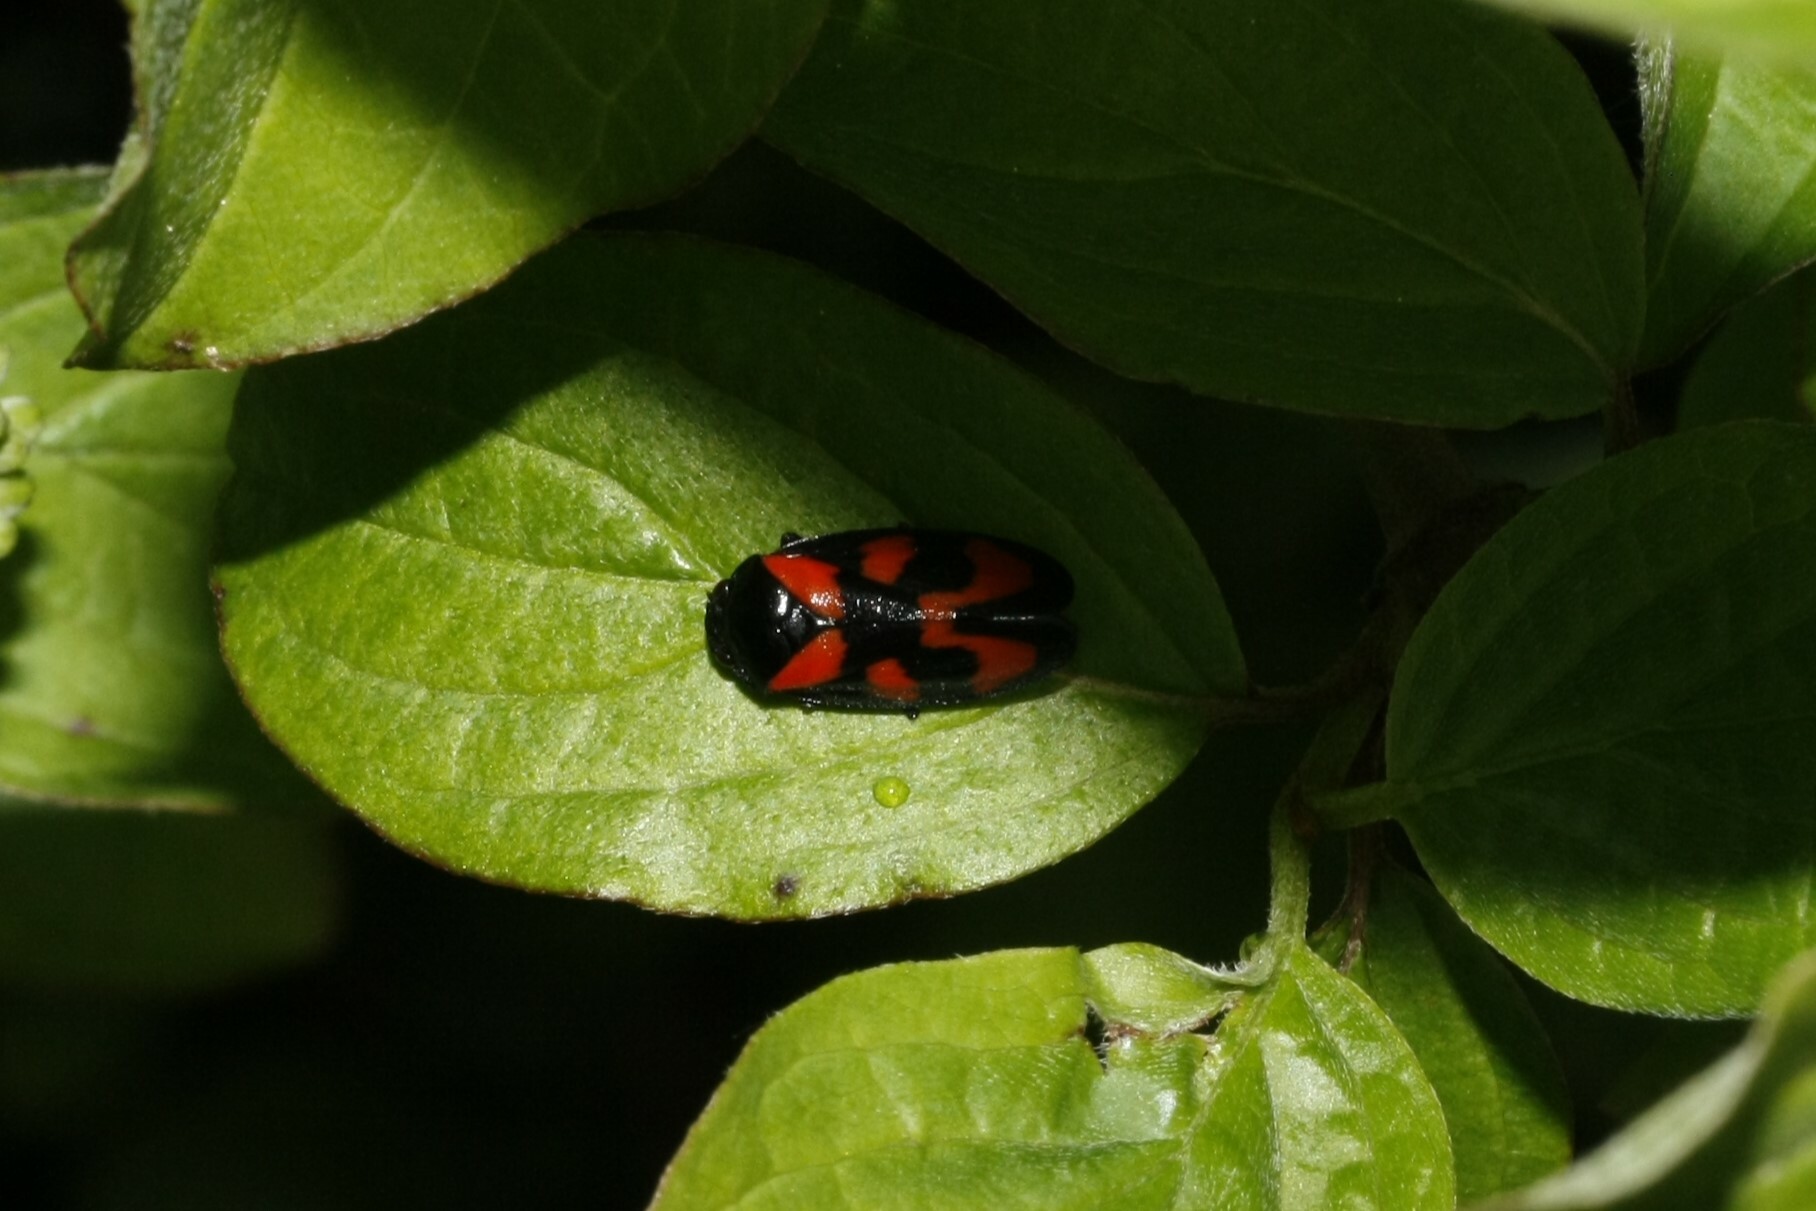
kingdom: Animalia
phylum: Arthropoda
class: Insecta
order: Hemiptera
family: Cercopidae
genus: Cercopis
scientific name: Cercopis vulnerata
